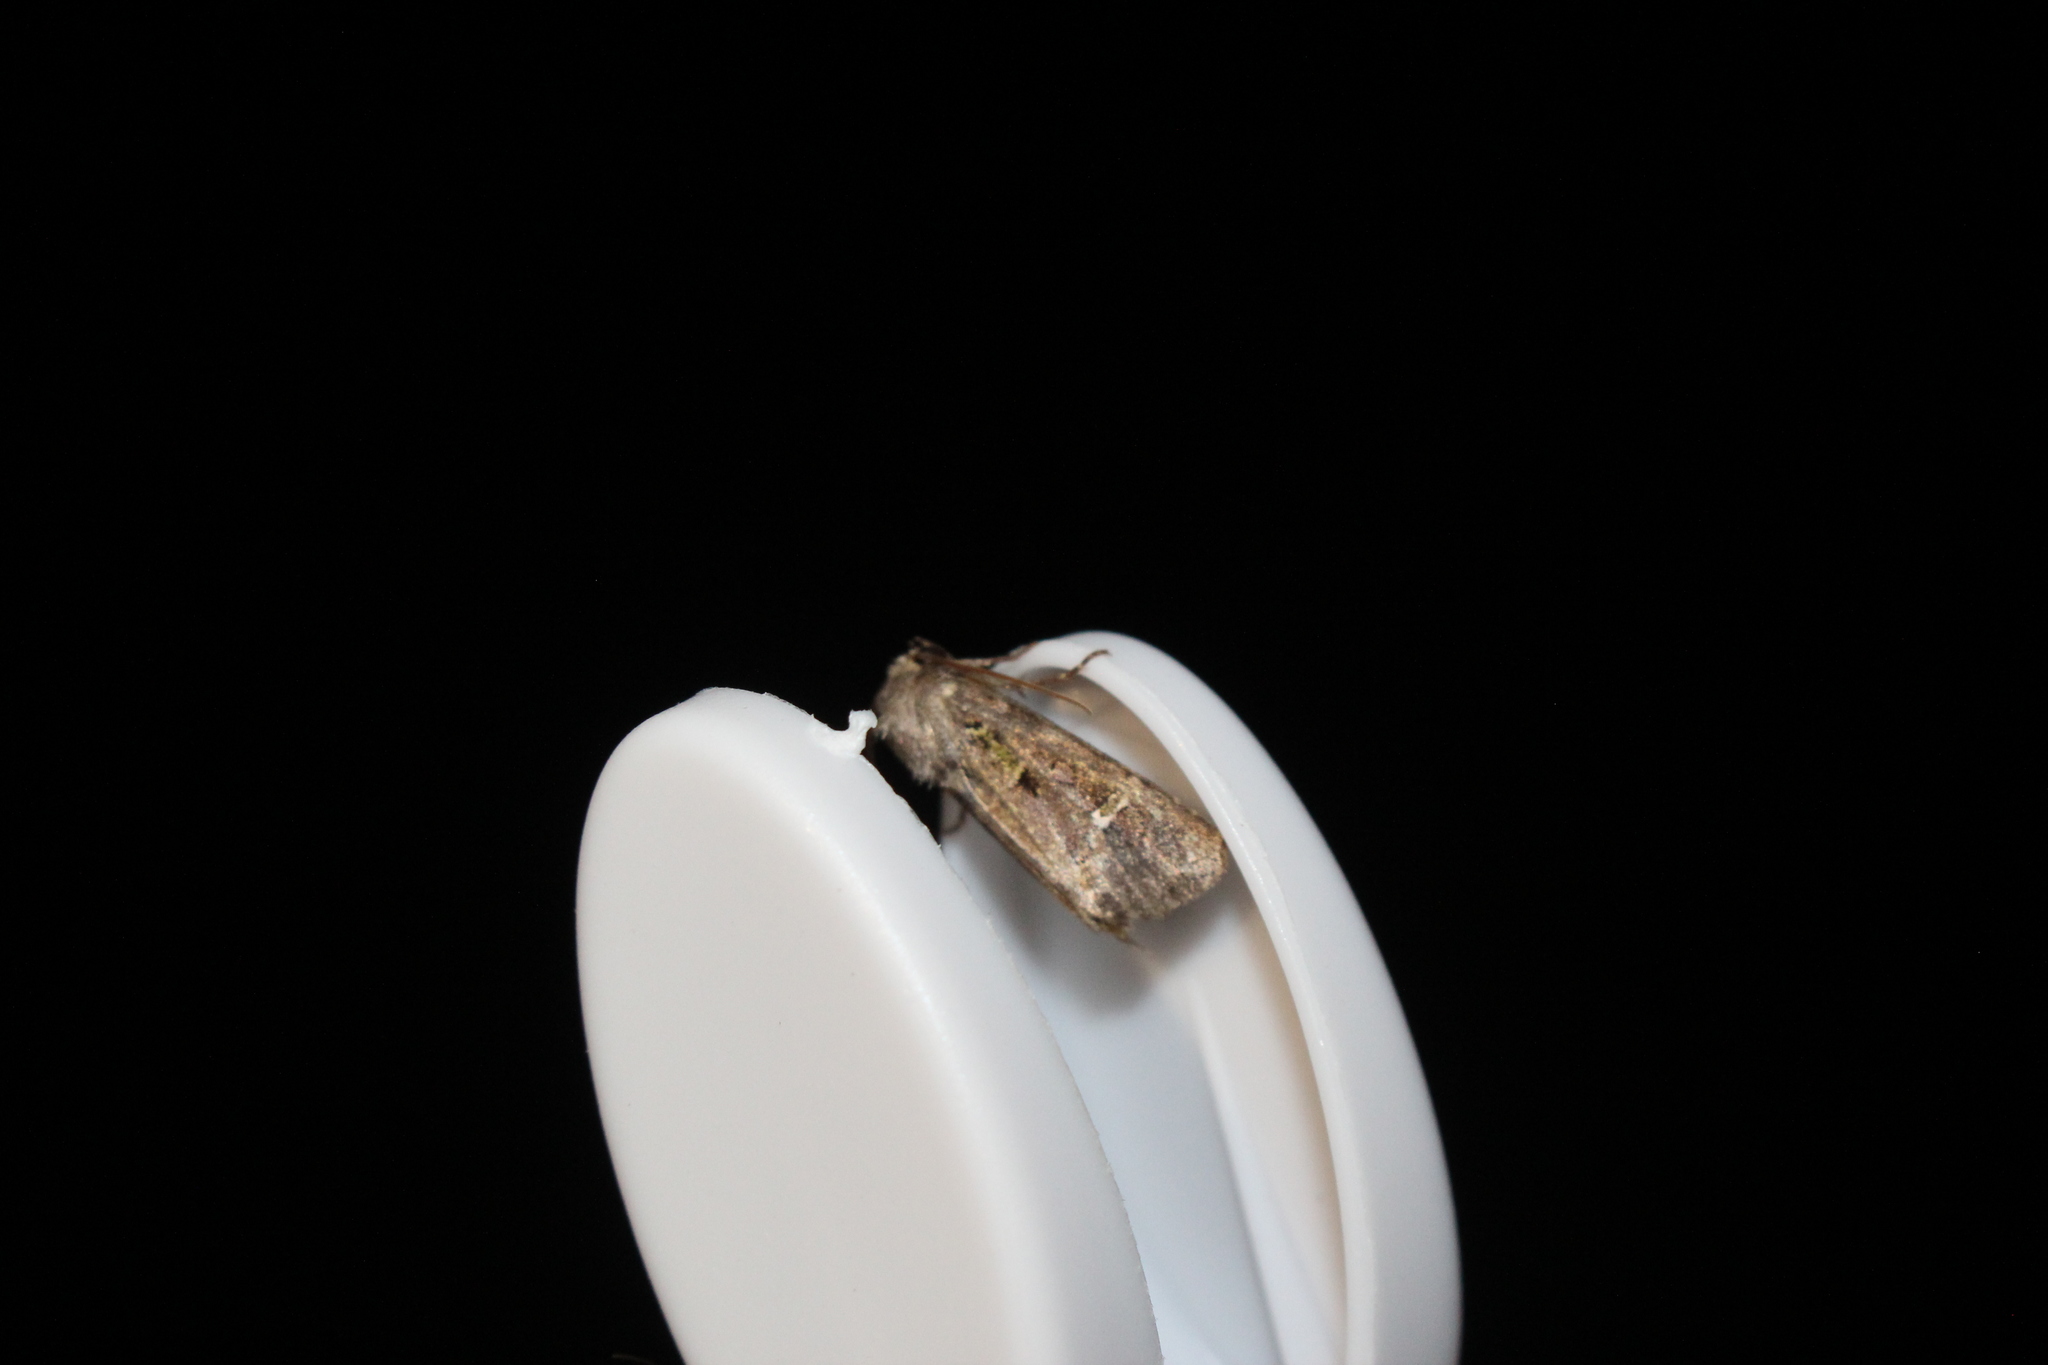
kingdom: Animalia
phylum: Arthropoda
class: Insecta
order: Lepidoptera
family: Noctuidae
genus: Lacinipolia
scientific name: Lacinipolia renigera
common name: Kidney-spotted minor
